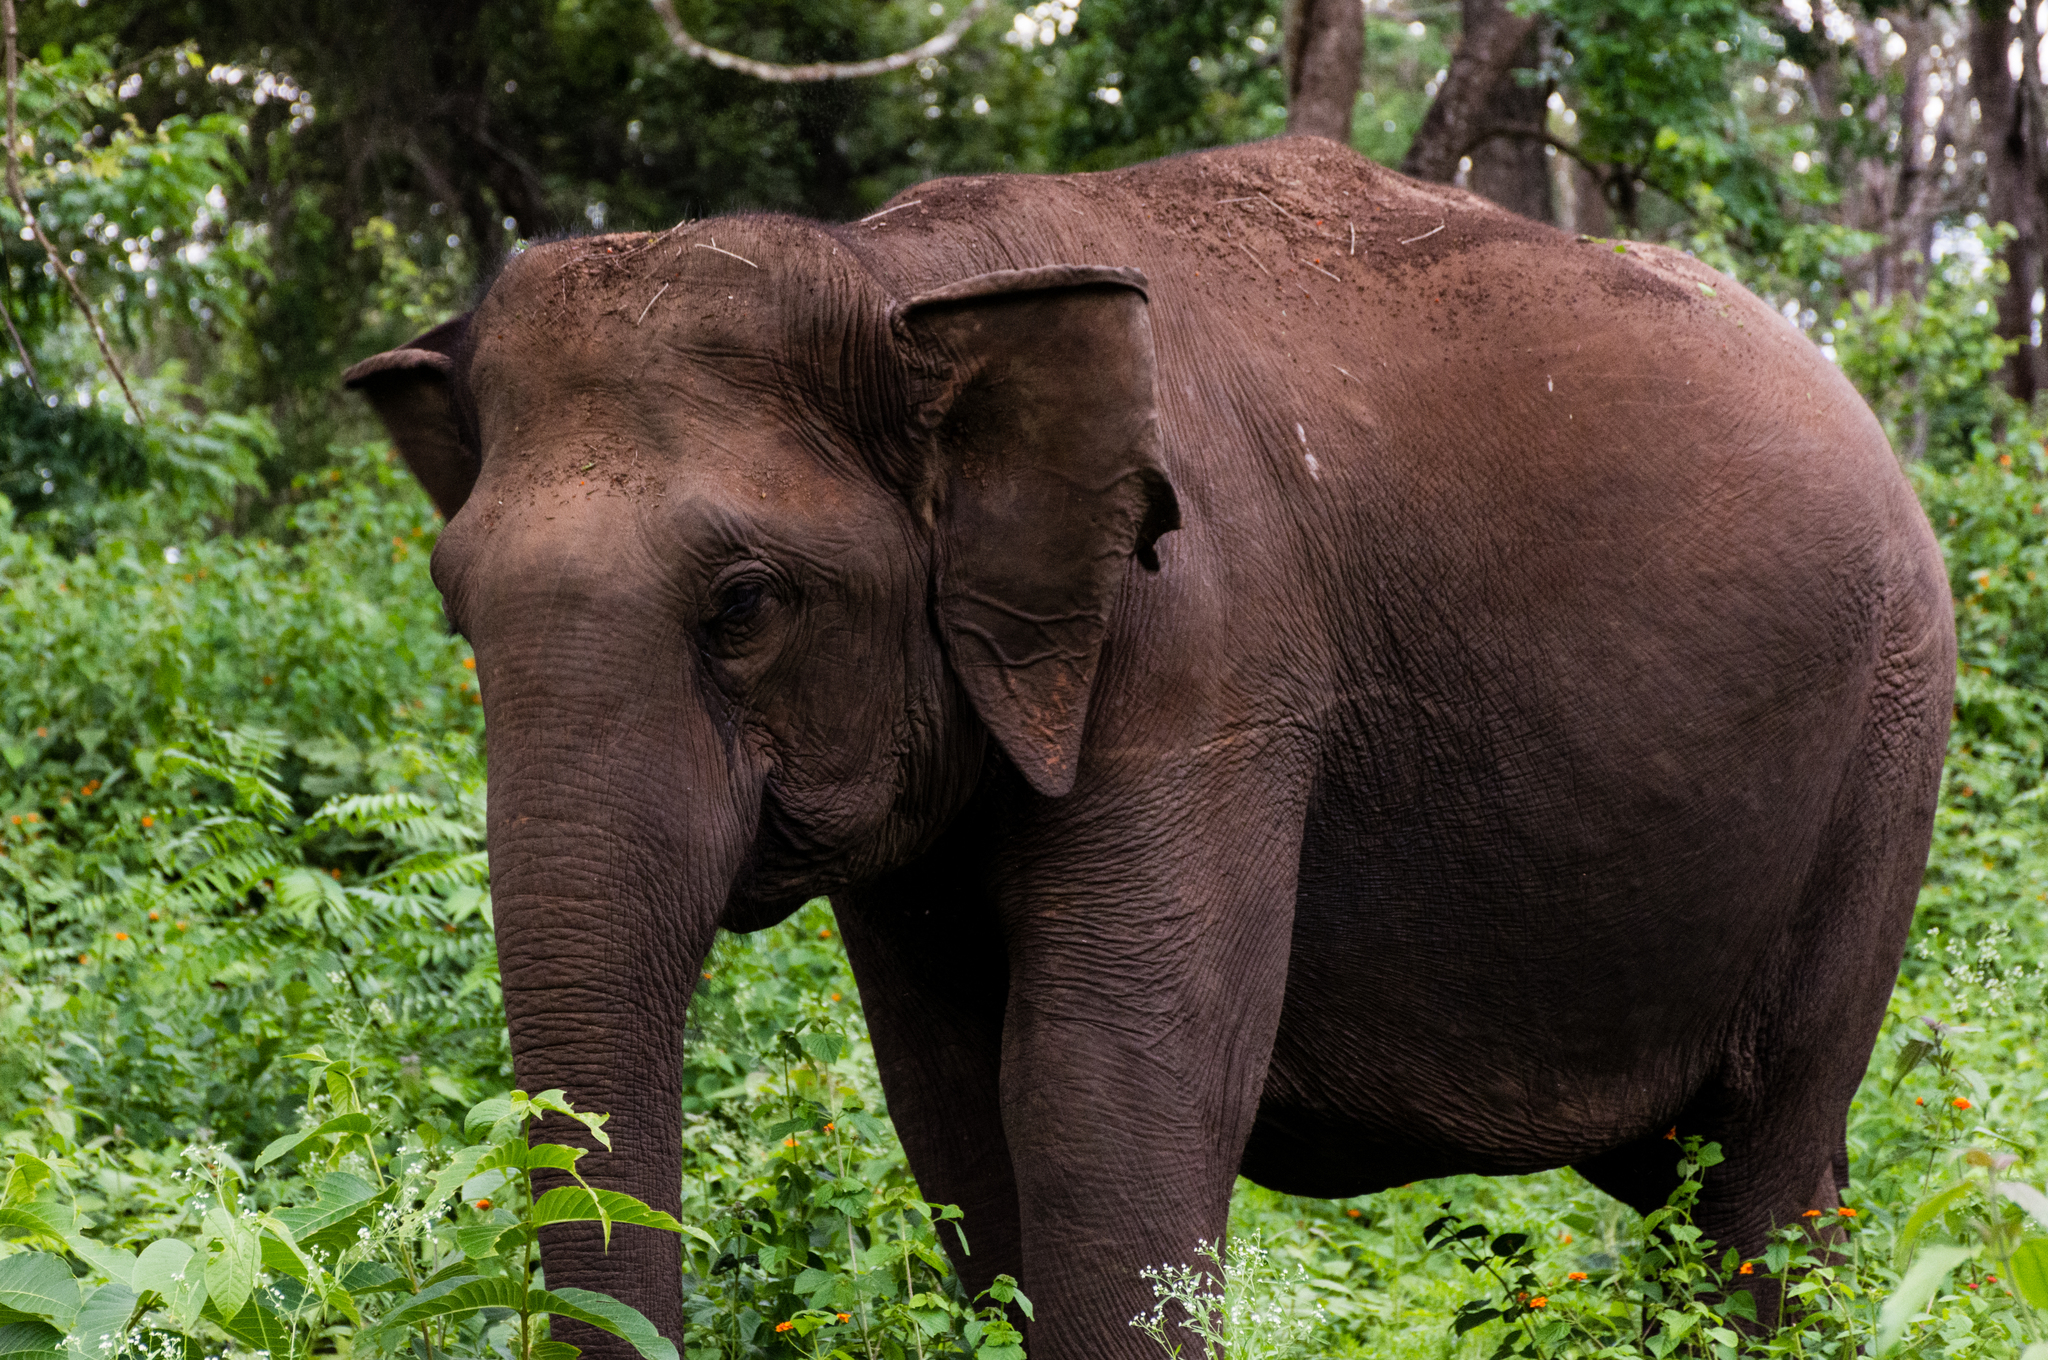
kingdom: Animalia
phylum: Chordata
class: Mammalia
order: Proboscidea
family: Elephantidae
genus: Elephas
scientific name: Elephas maximus
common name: Asian elephant
